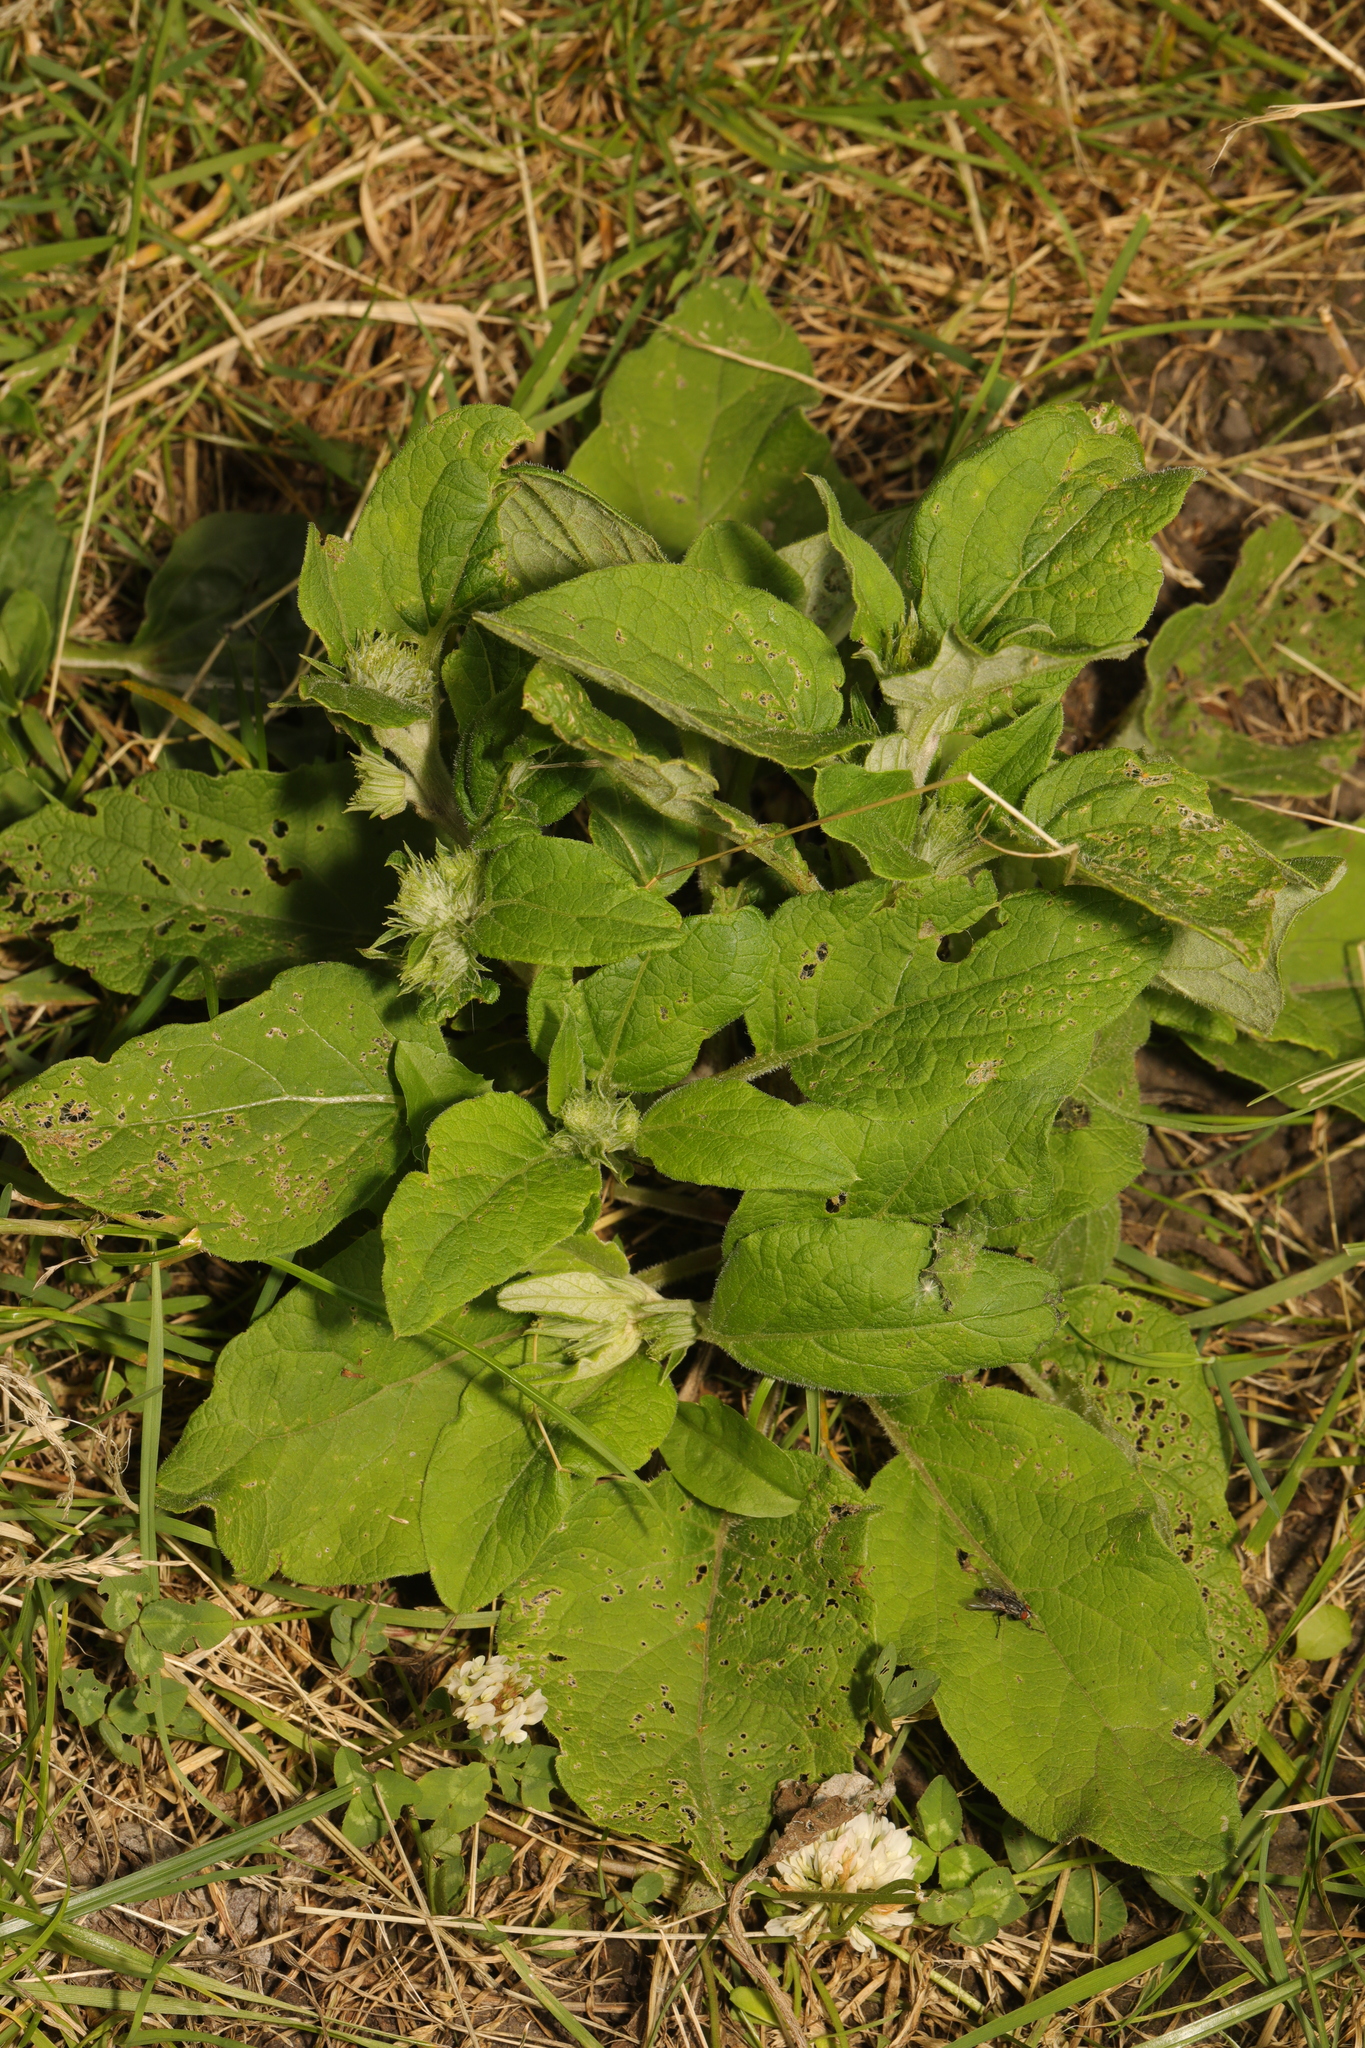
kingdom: Plantae
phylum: Tracheophyta
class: Magnoliopsida
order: Asterales
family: Asteraceae
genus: Arctium
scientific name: Arctium minus
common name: Lesser burdock
